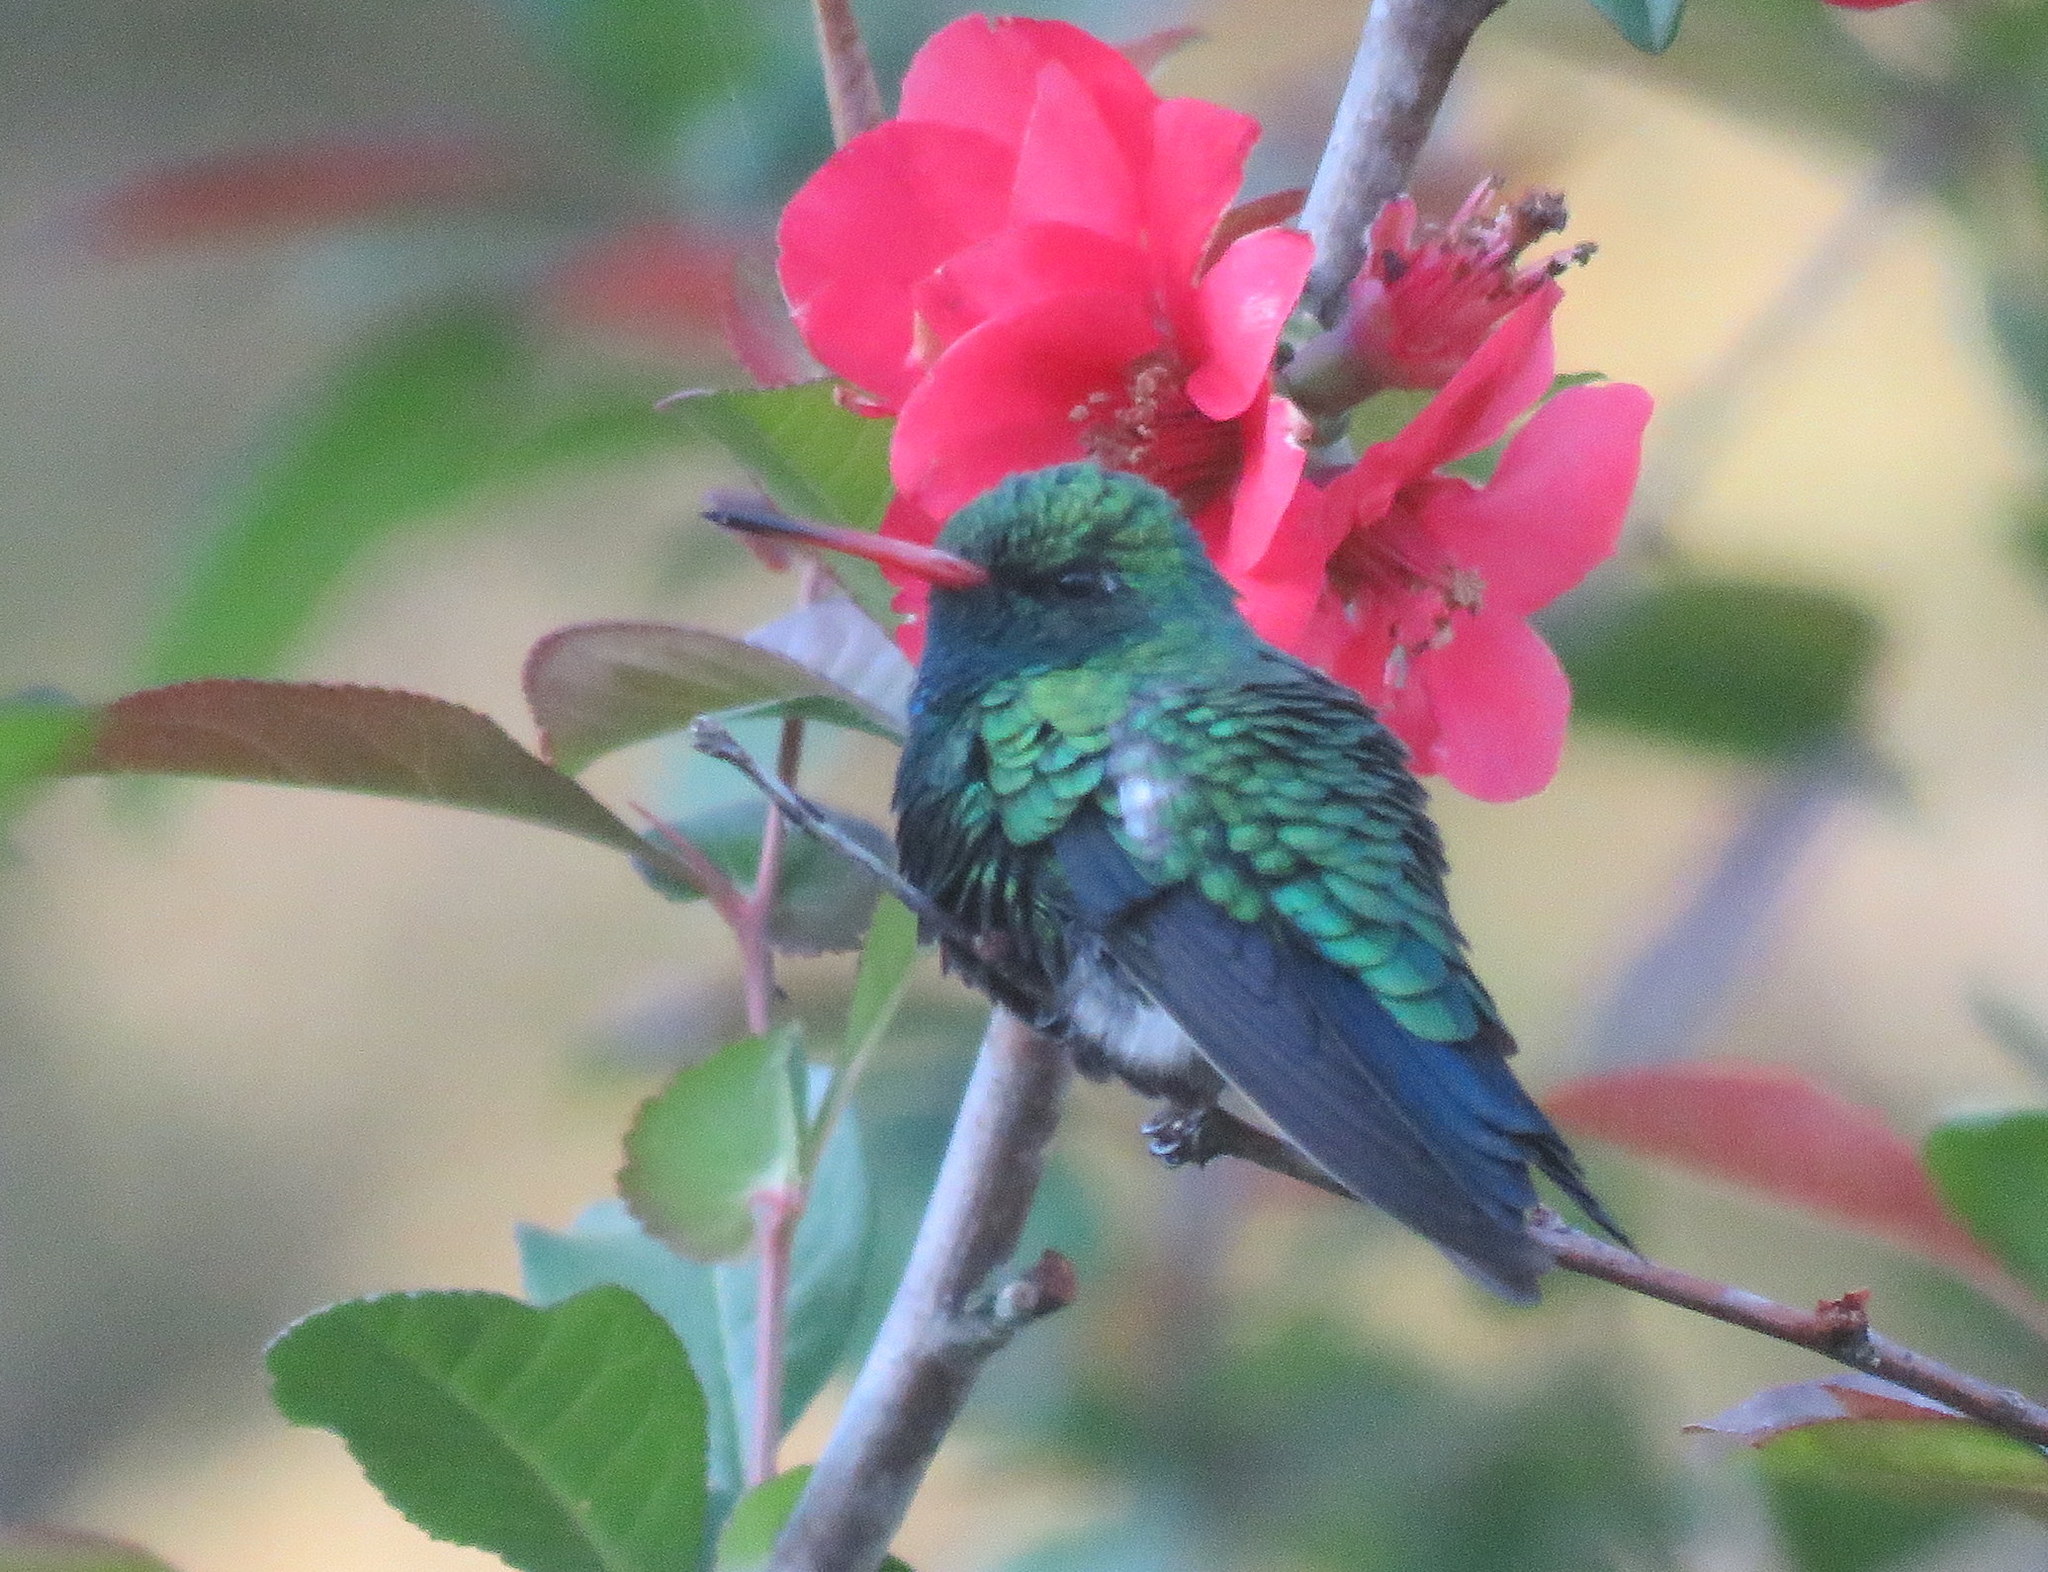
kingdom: Animalia
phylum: Chordata
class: Aves
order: Apodiformes
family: Trochilidae
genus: Chlorostilbon
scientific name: Chlorostilbon lucidus
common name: Glittering-bellied emerald
